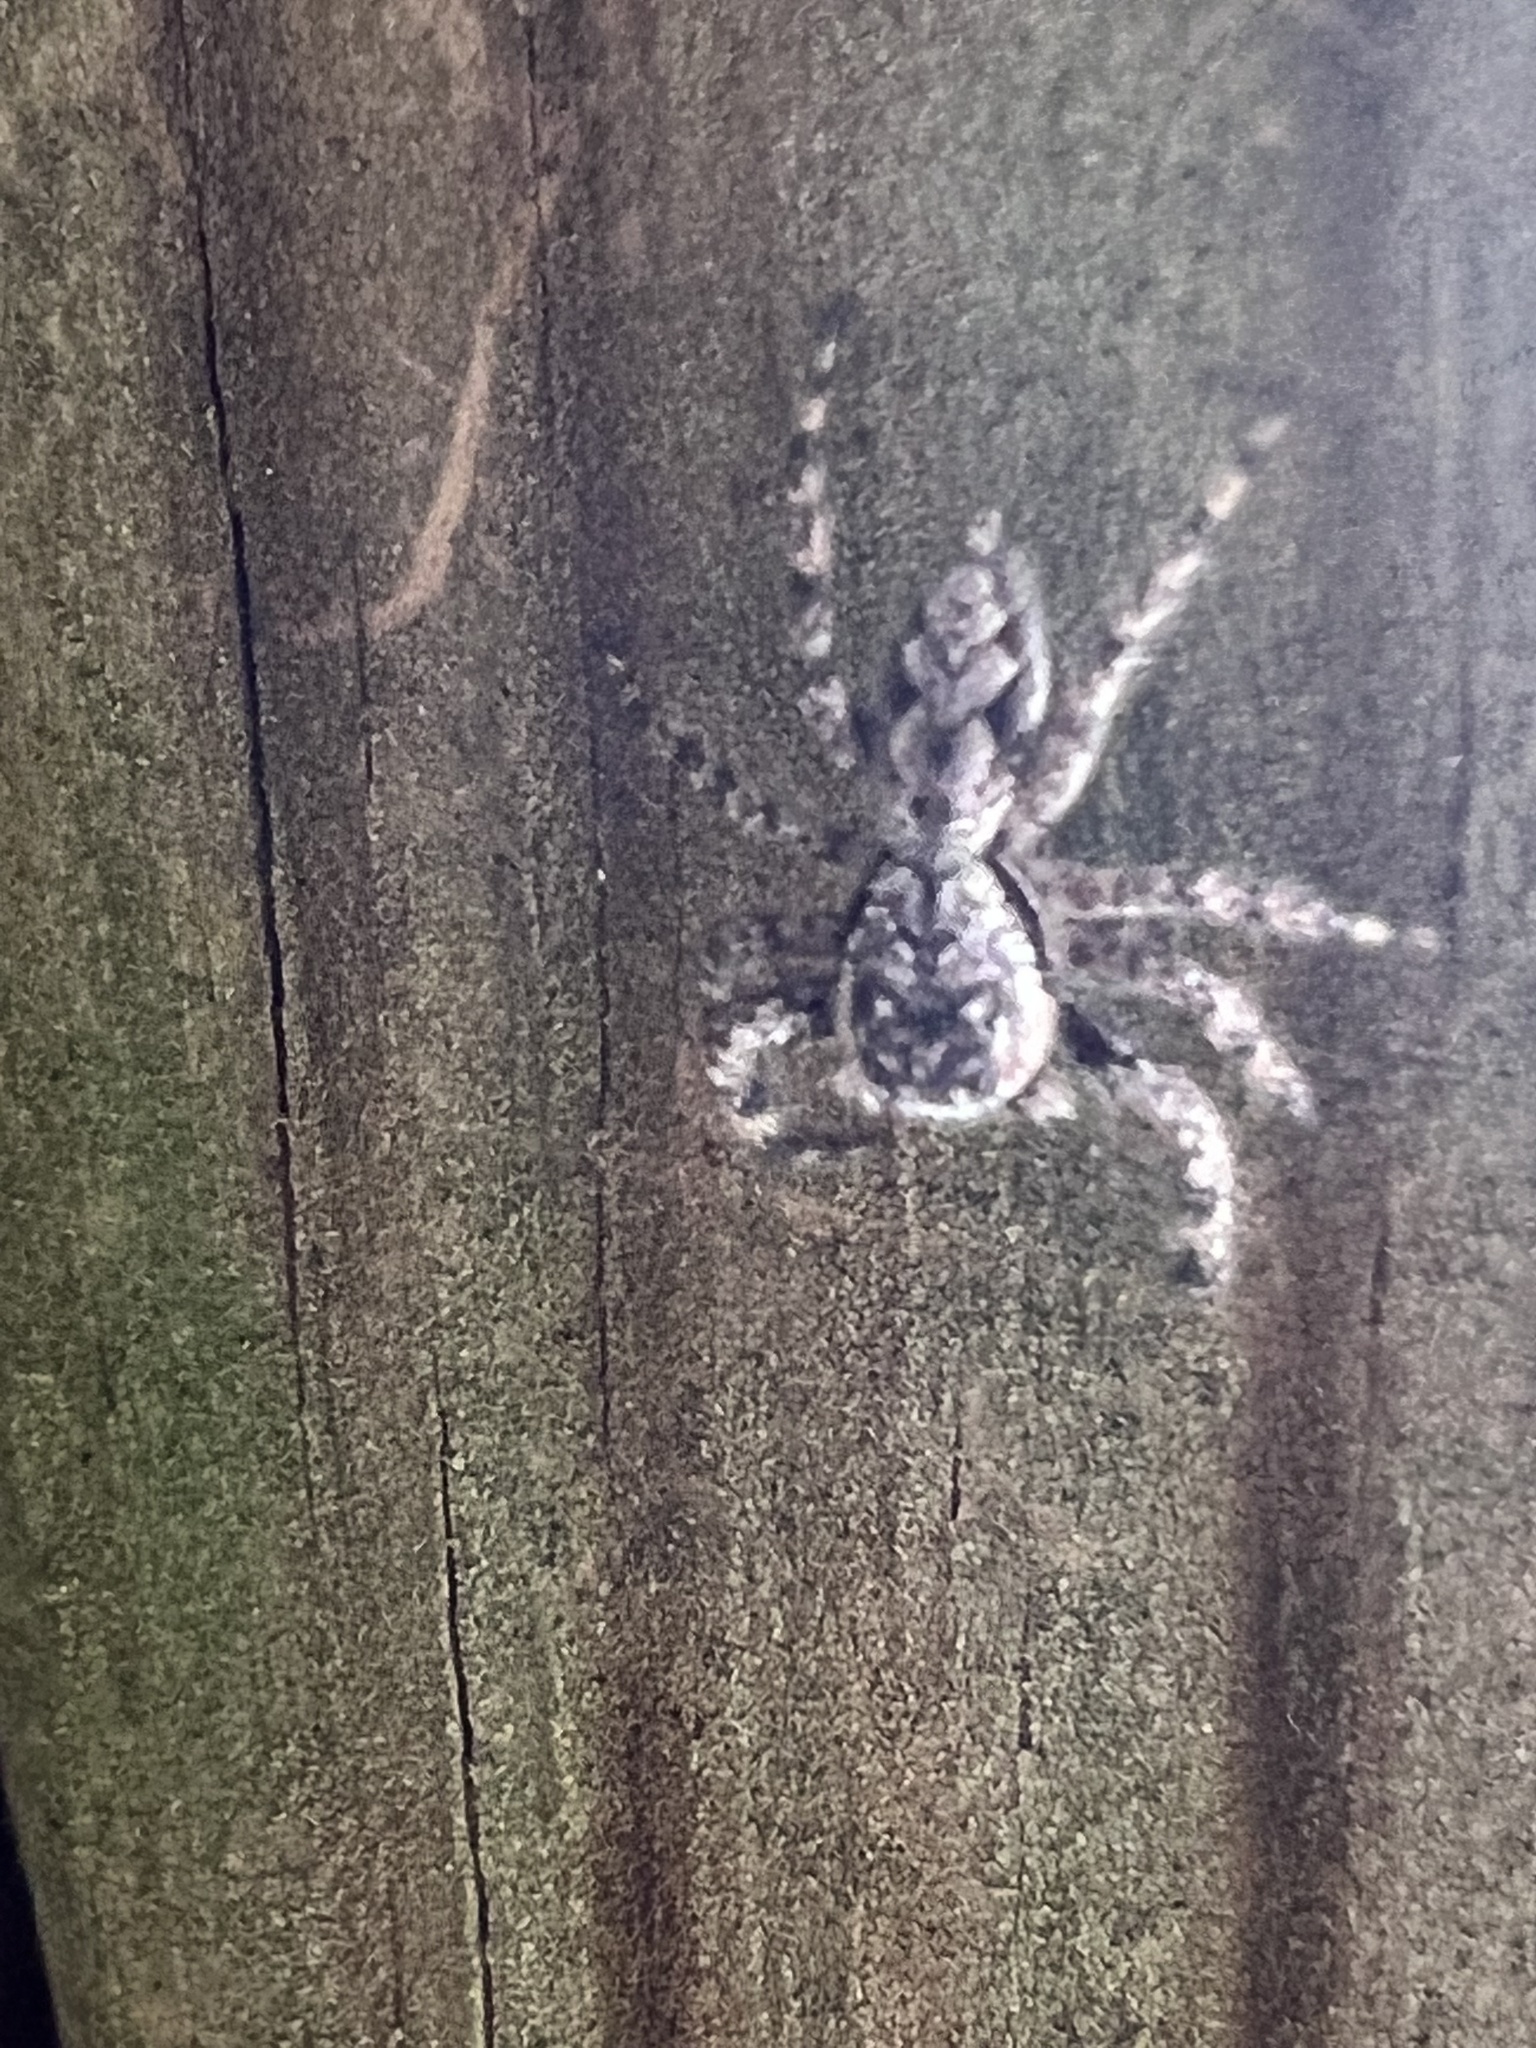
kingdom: Animalia
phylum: Arthropoda
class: Arachnida
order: Araneae
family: Salticidae
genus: Platycryptus
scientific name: Platycryptus undatus
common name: Tan jumping spider
